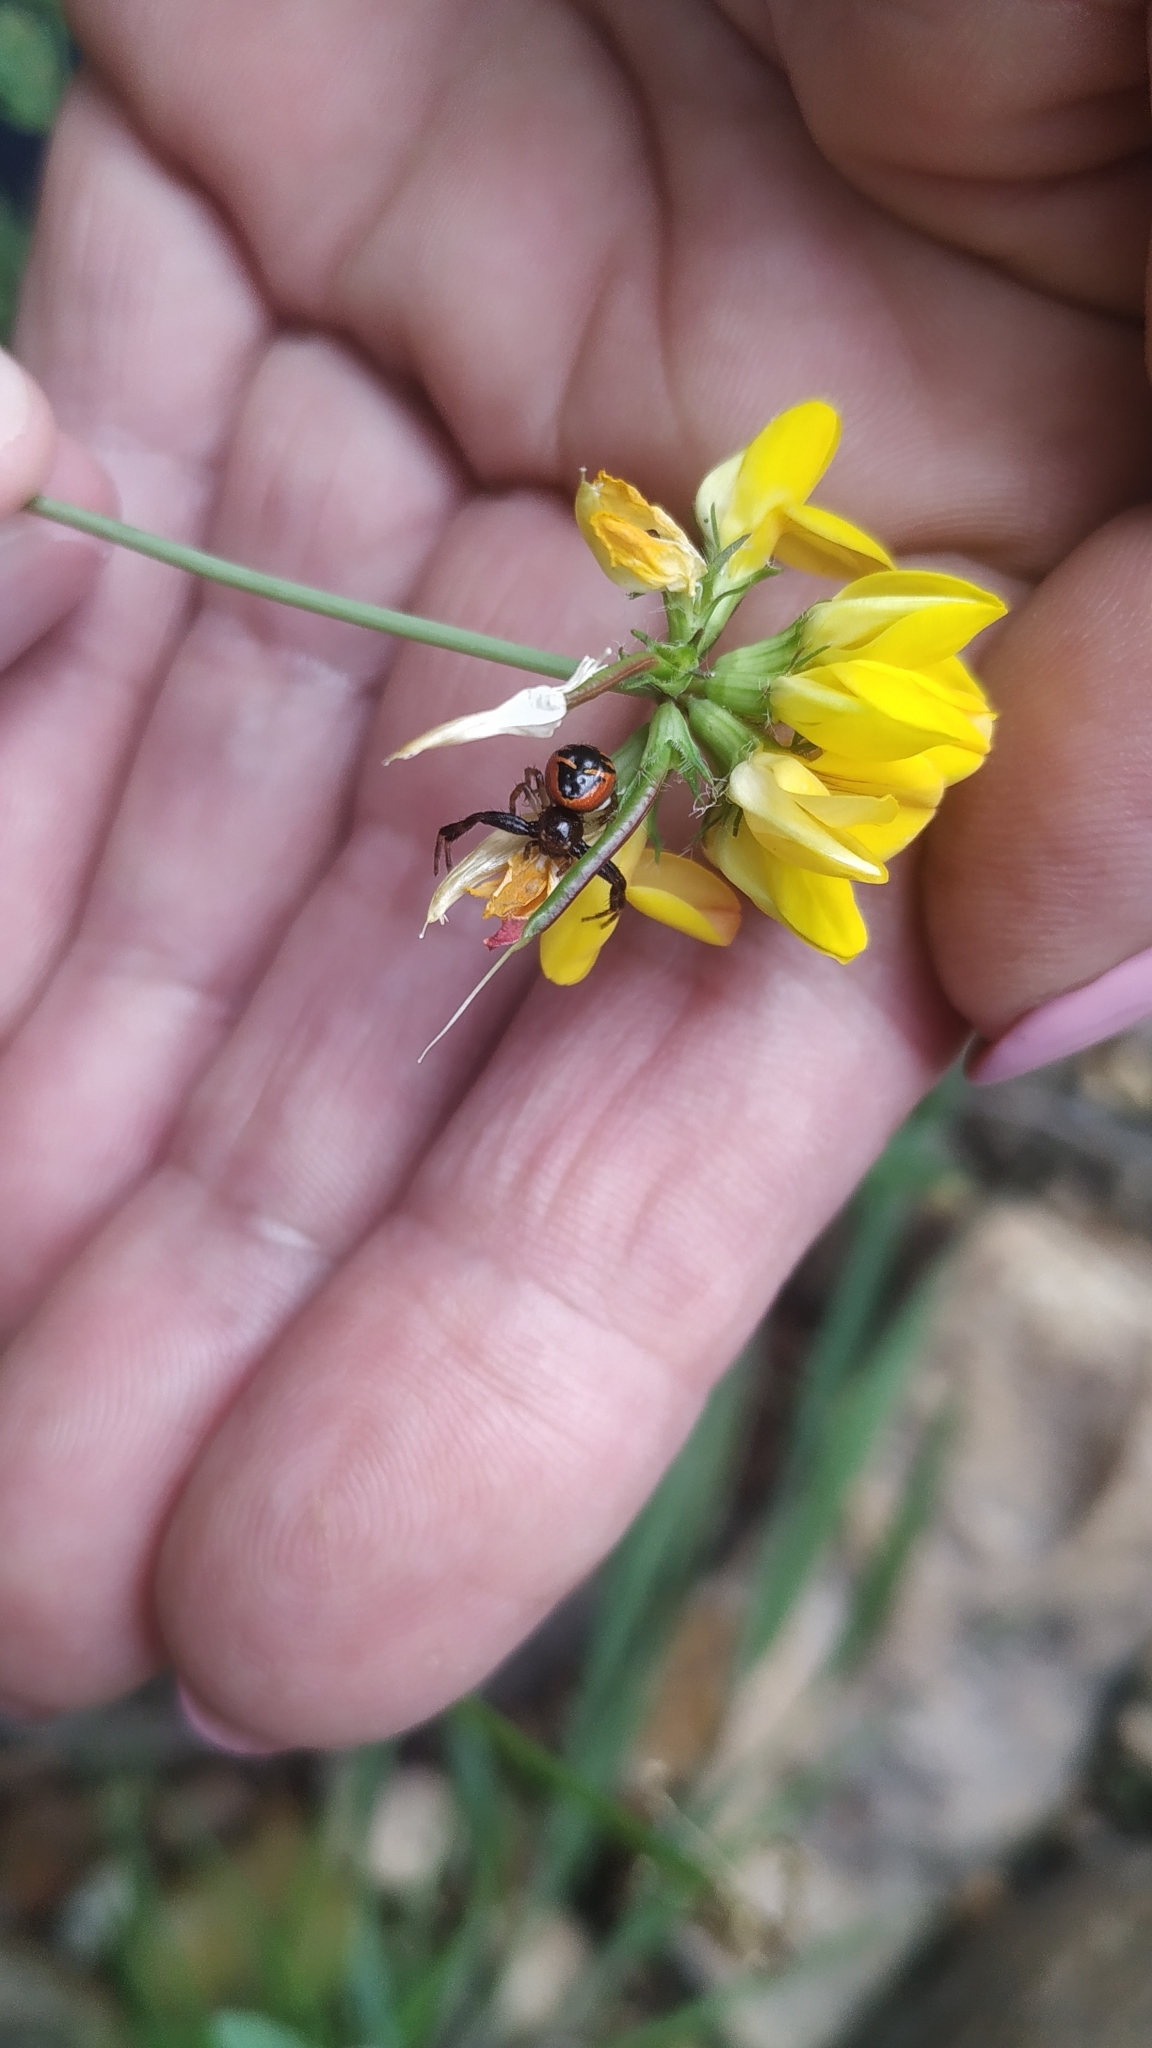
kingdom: Animalia
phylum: Arthropoda
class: Arachnida
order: Araneae
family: Thomisidae
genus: Synema
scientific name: Synema globosum
